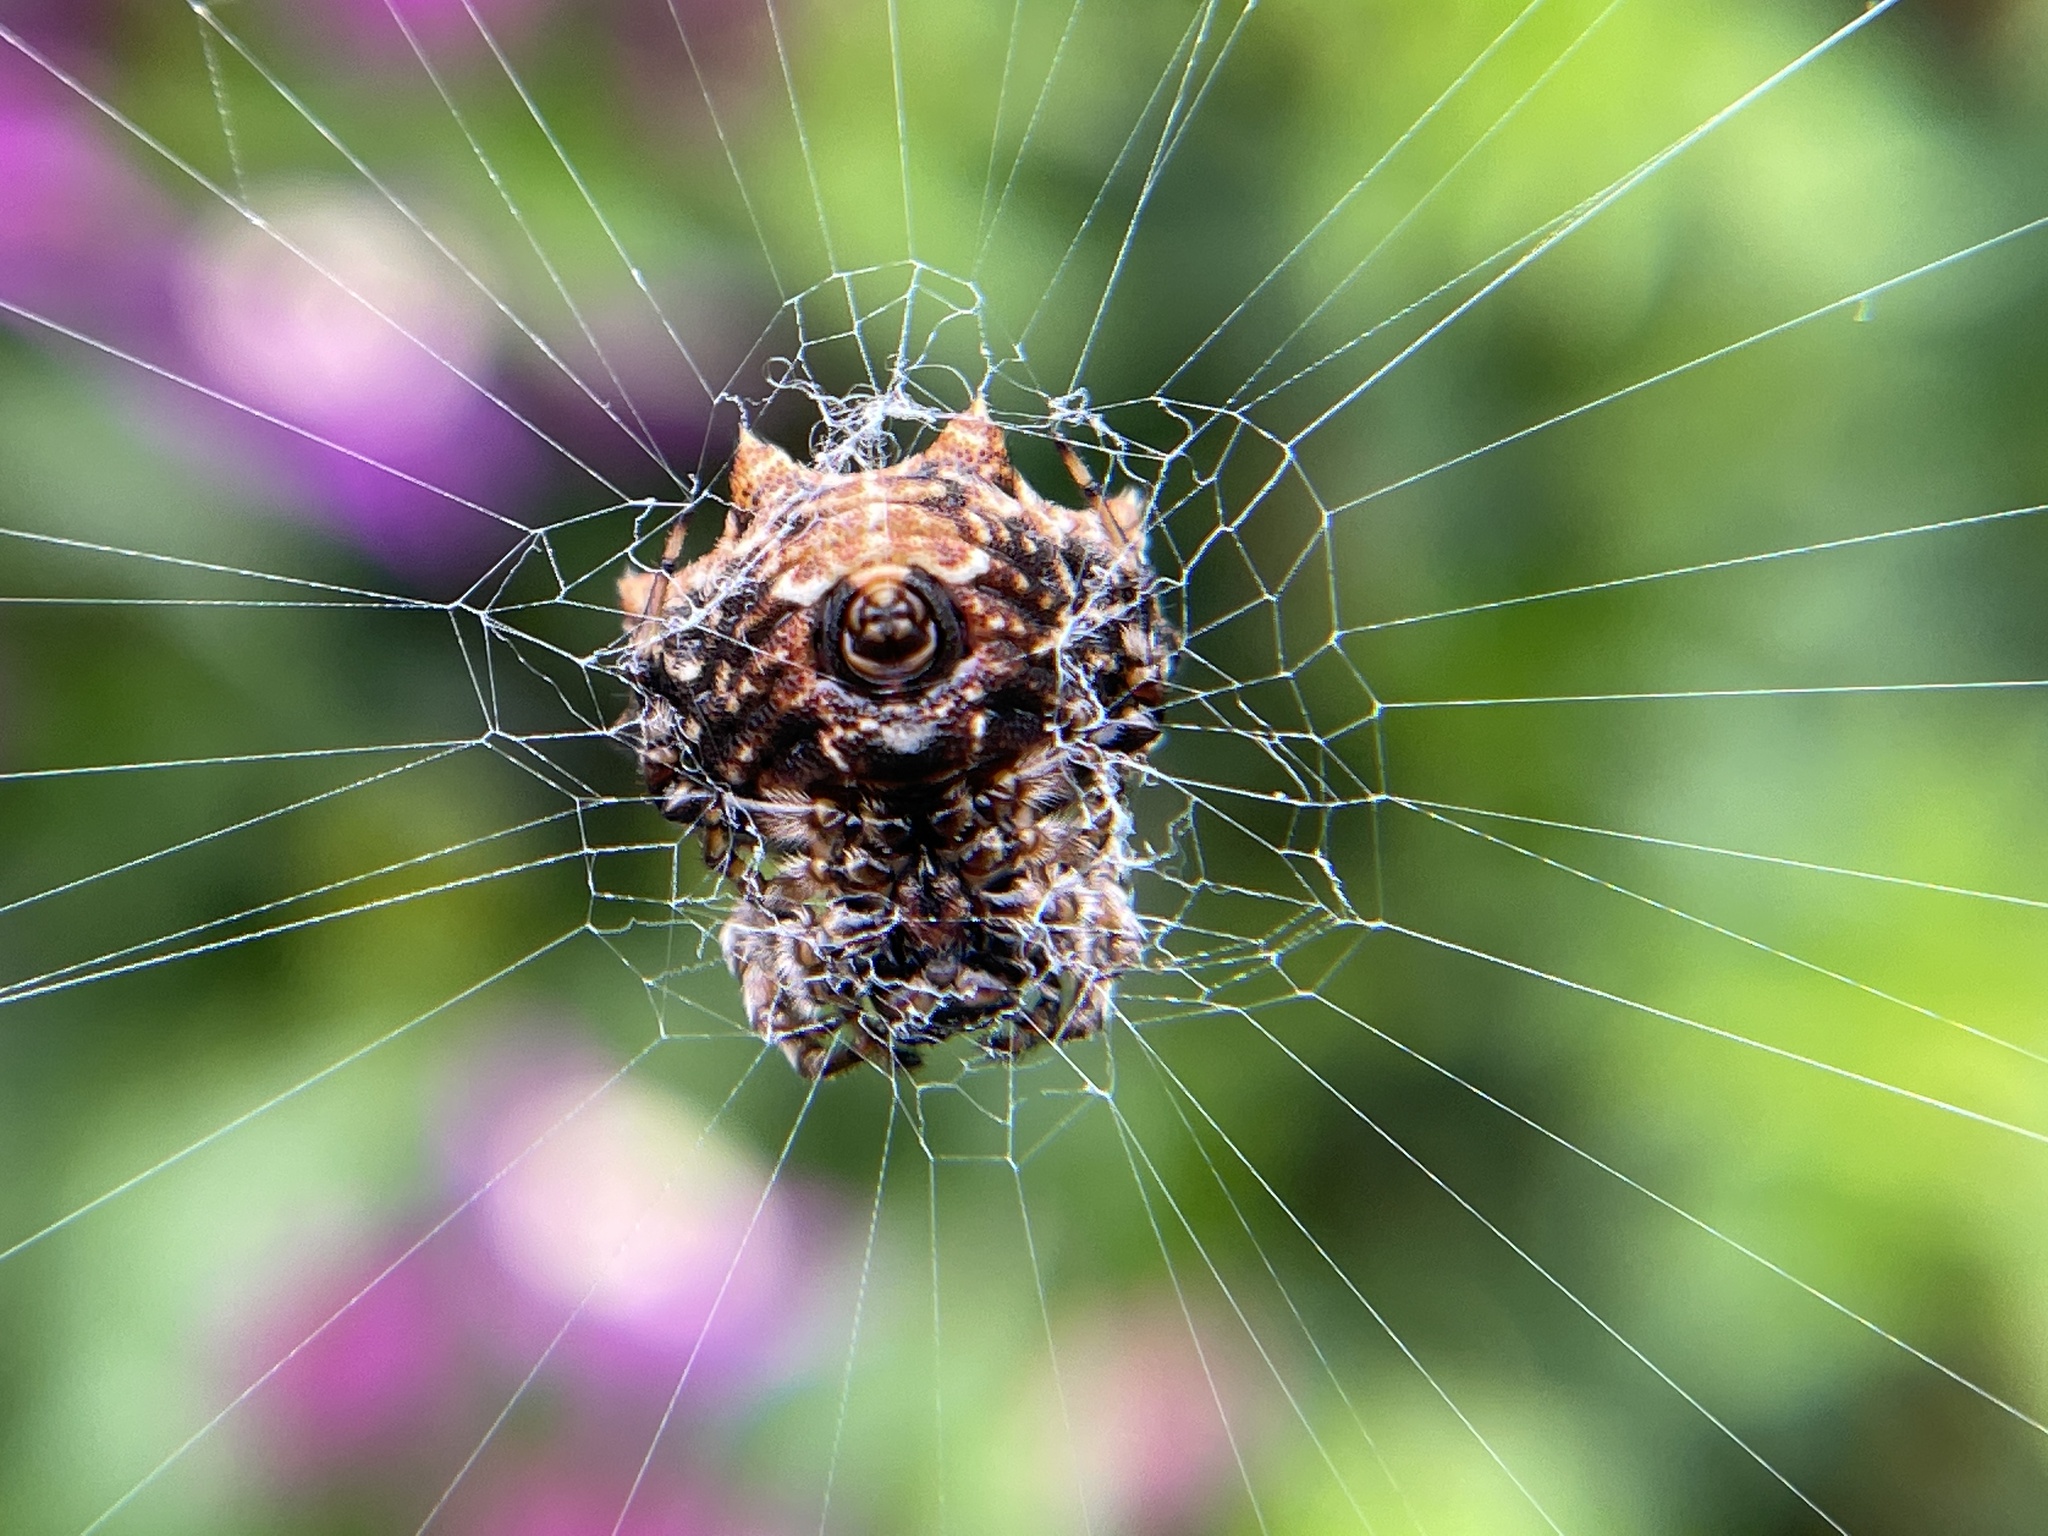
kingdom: Animalia
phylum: Arthropoda
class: Arachnida
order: Araneae
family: Araneidae
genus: Thelacantha
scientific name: Thelacantha brevispina
